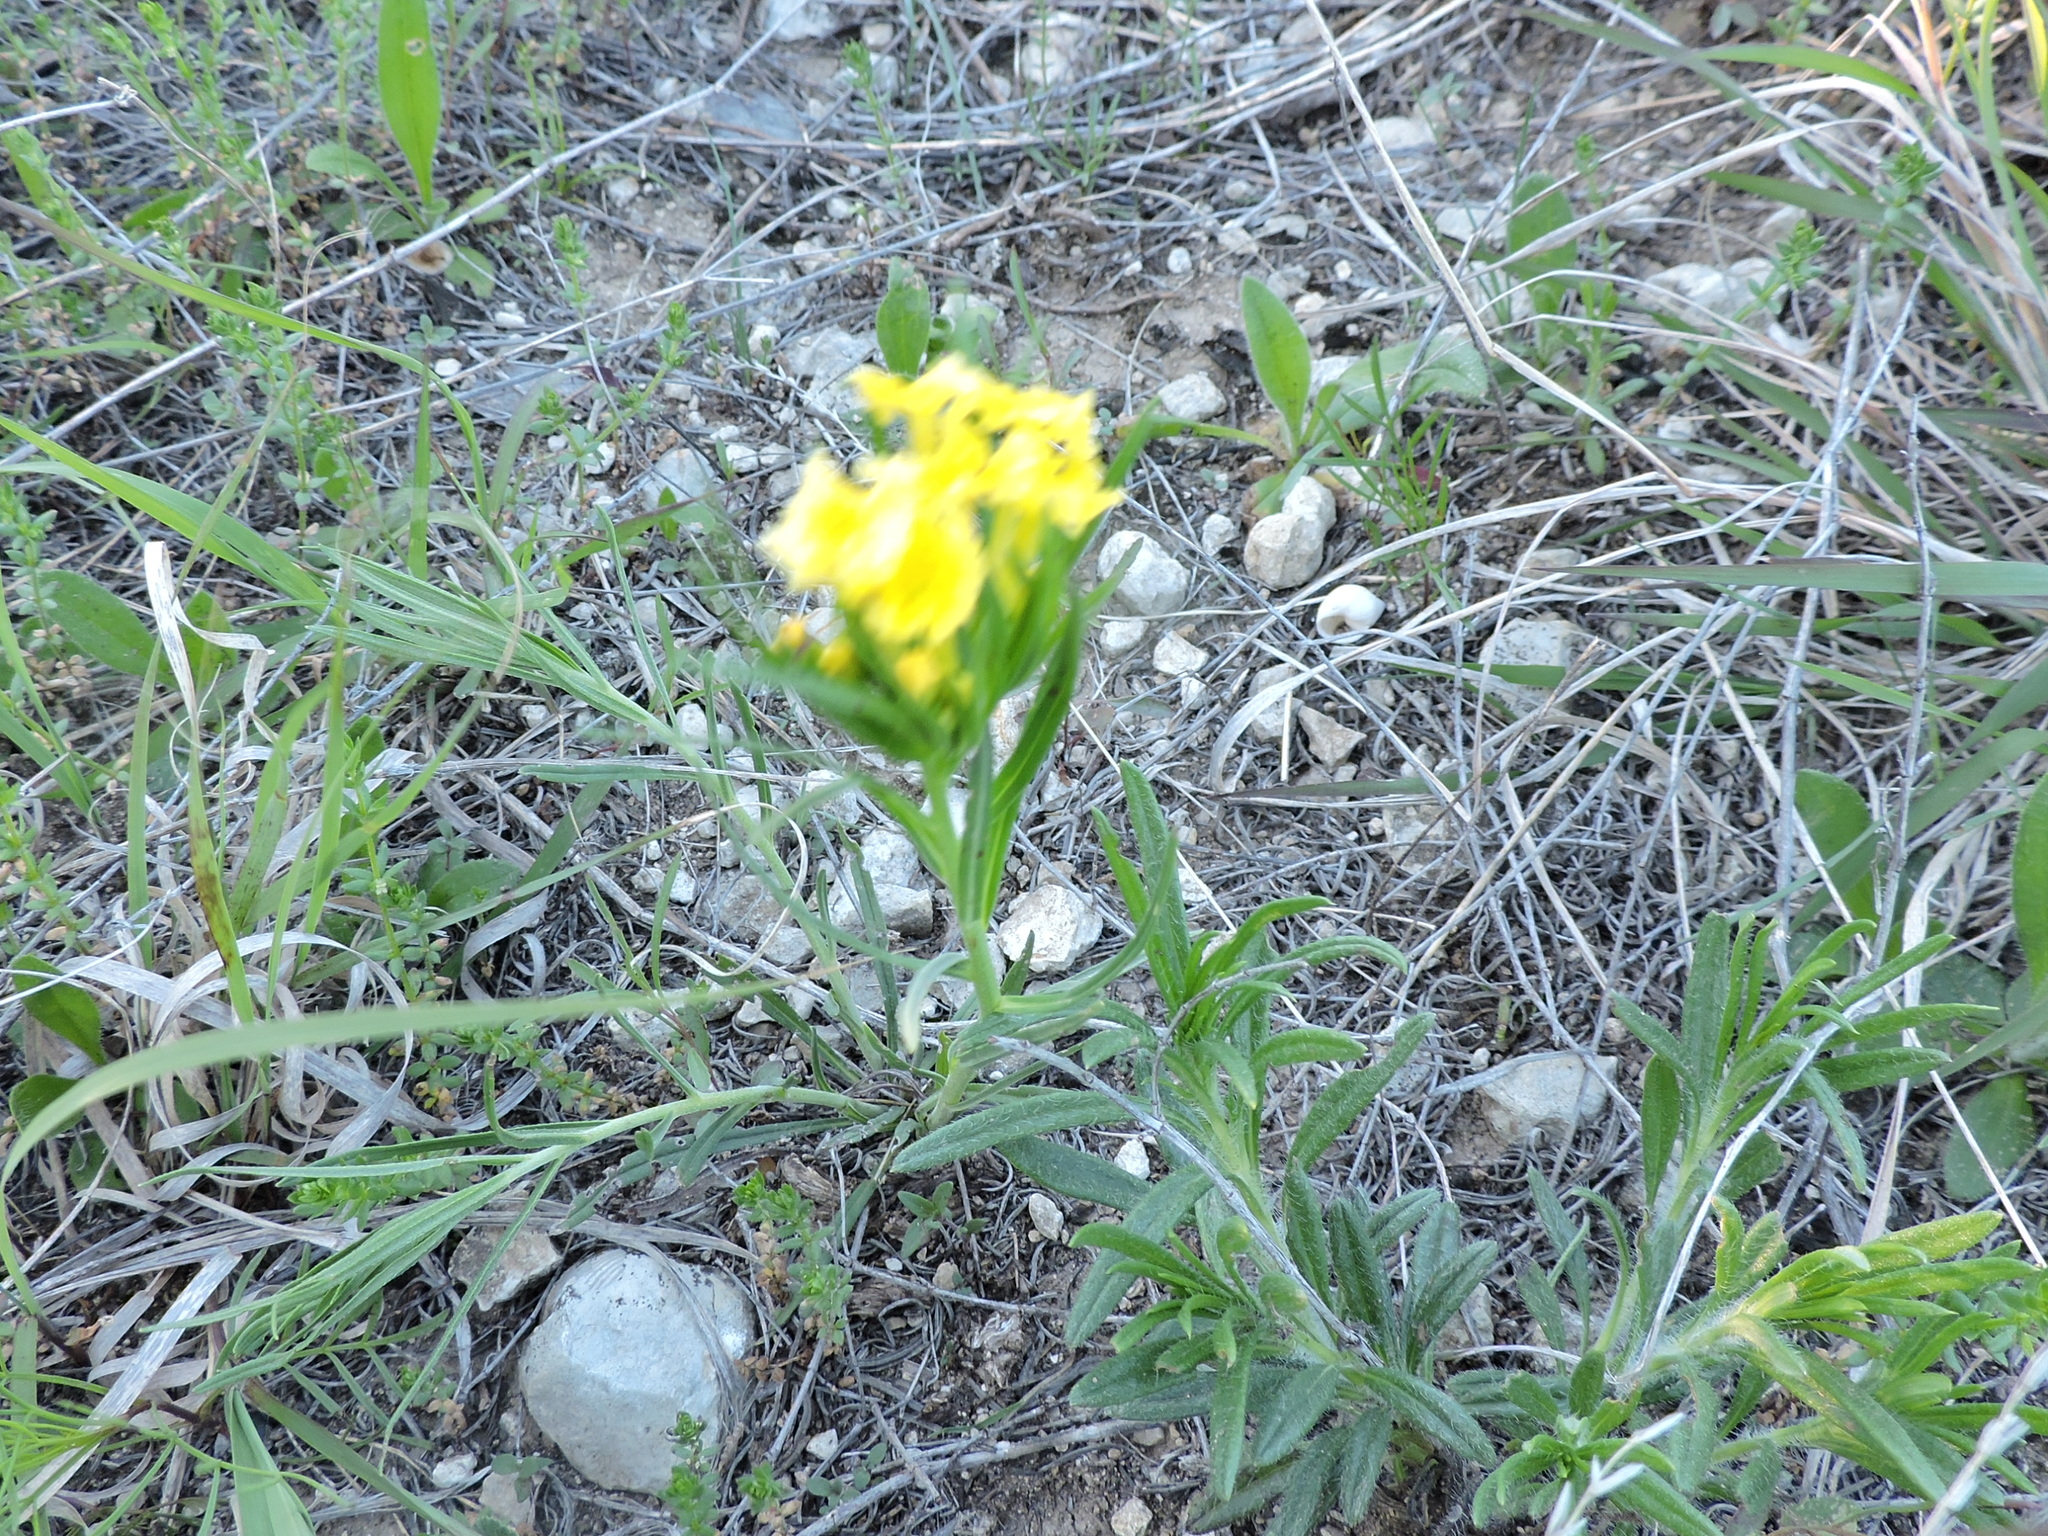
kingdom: Plantae
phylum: Tracheophyta
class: Magnoliopsida
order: Boraginales
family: Boraginaceae
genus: Lithospermum
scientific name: Lithospermum incisum
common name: Fringed gromwell
